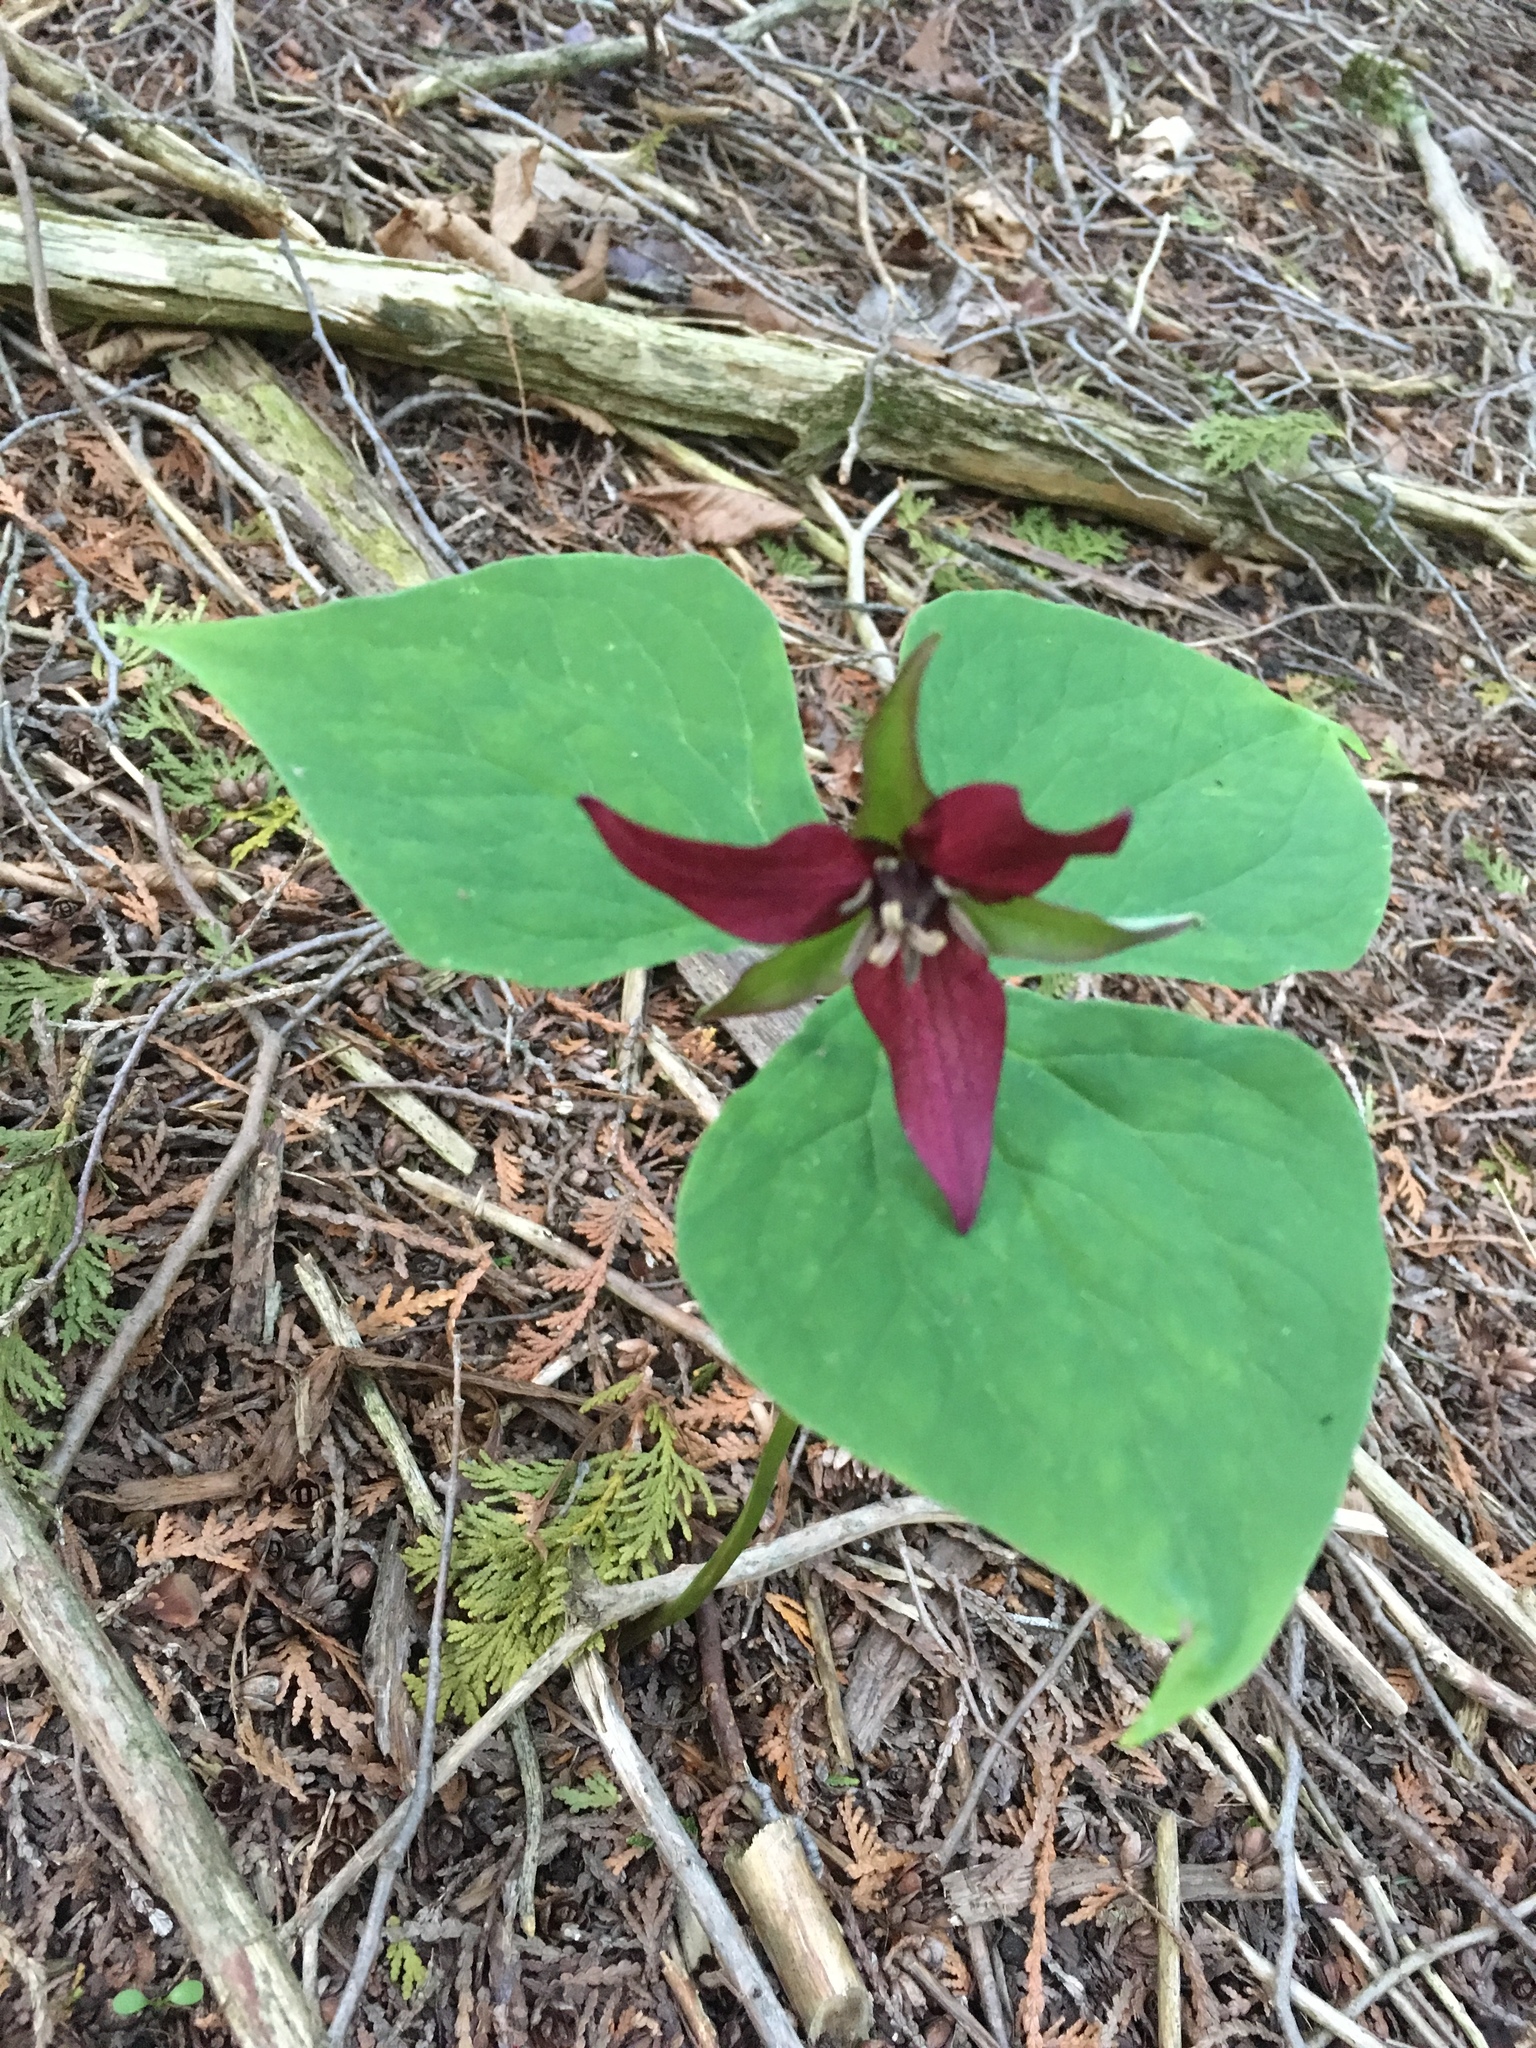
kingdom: Plantae
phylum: Tracheophyta
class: Liliopsida
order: Liliales
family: Melanthiaceae
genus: Trillium
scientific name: Trillium erectum
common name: Purple trillium
